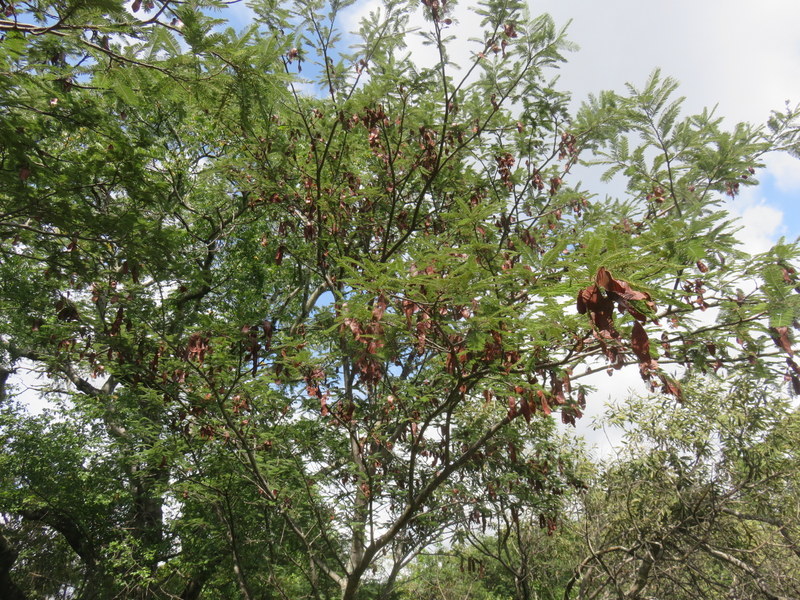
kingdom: Plantae
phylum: Tracheophyta
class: Magnoliopsida
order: Fabales
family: Fabaceae
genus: Albizia
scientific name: Albizia amara
